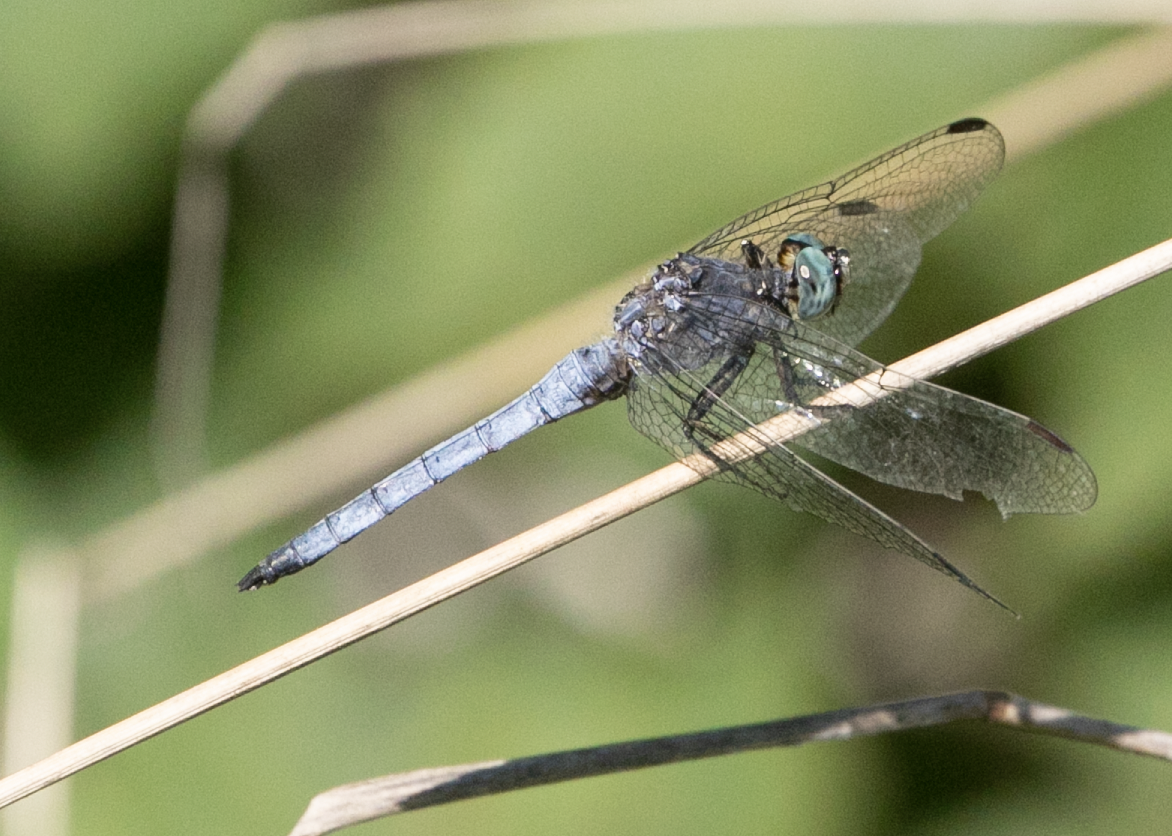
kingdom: Animalia
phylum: Arthropoda
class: Insecta
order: Odonata
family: Libellulidae
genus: Orthetrum
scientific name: Orthetrum coerulescens
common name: Keeled skimmer
